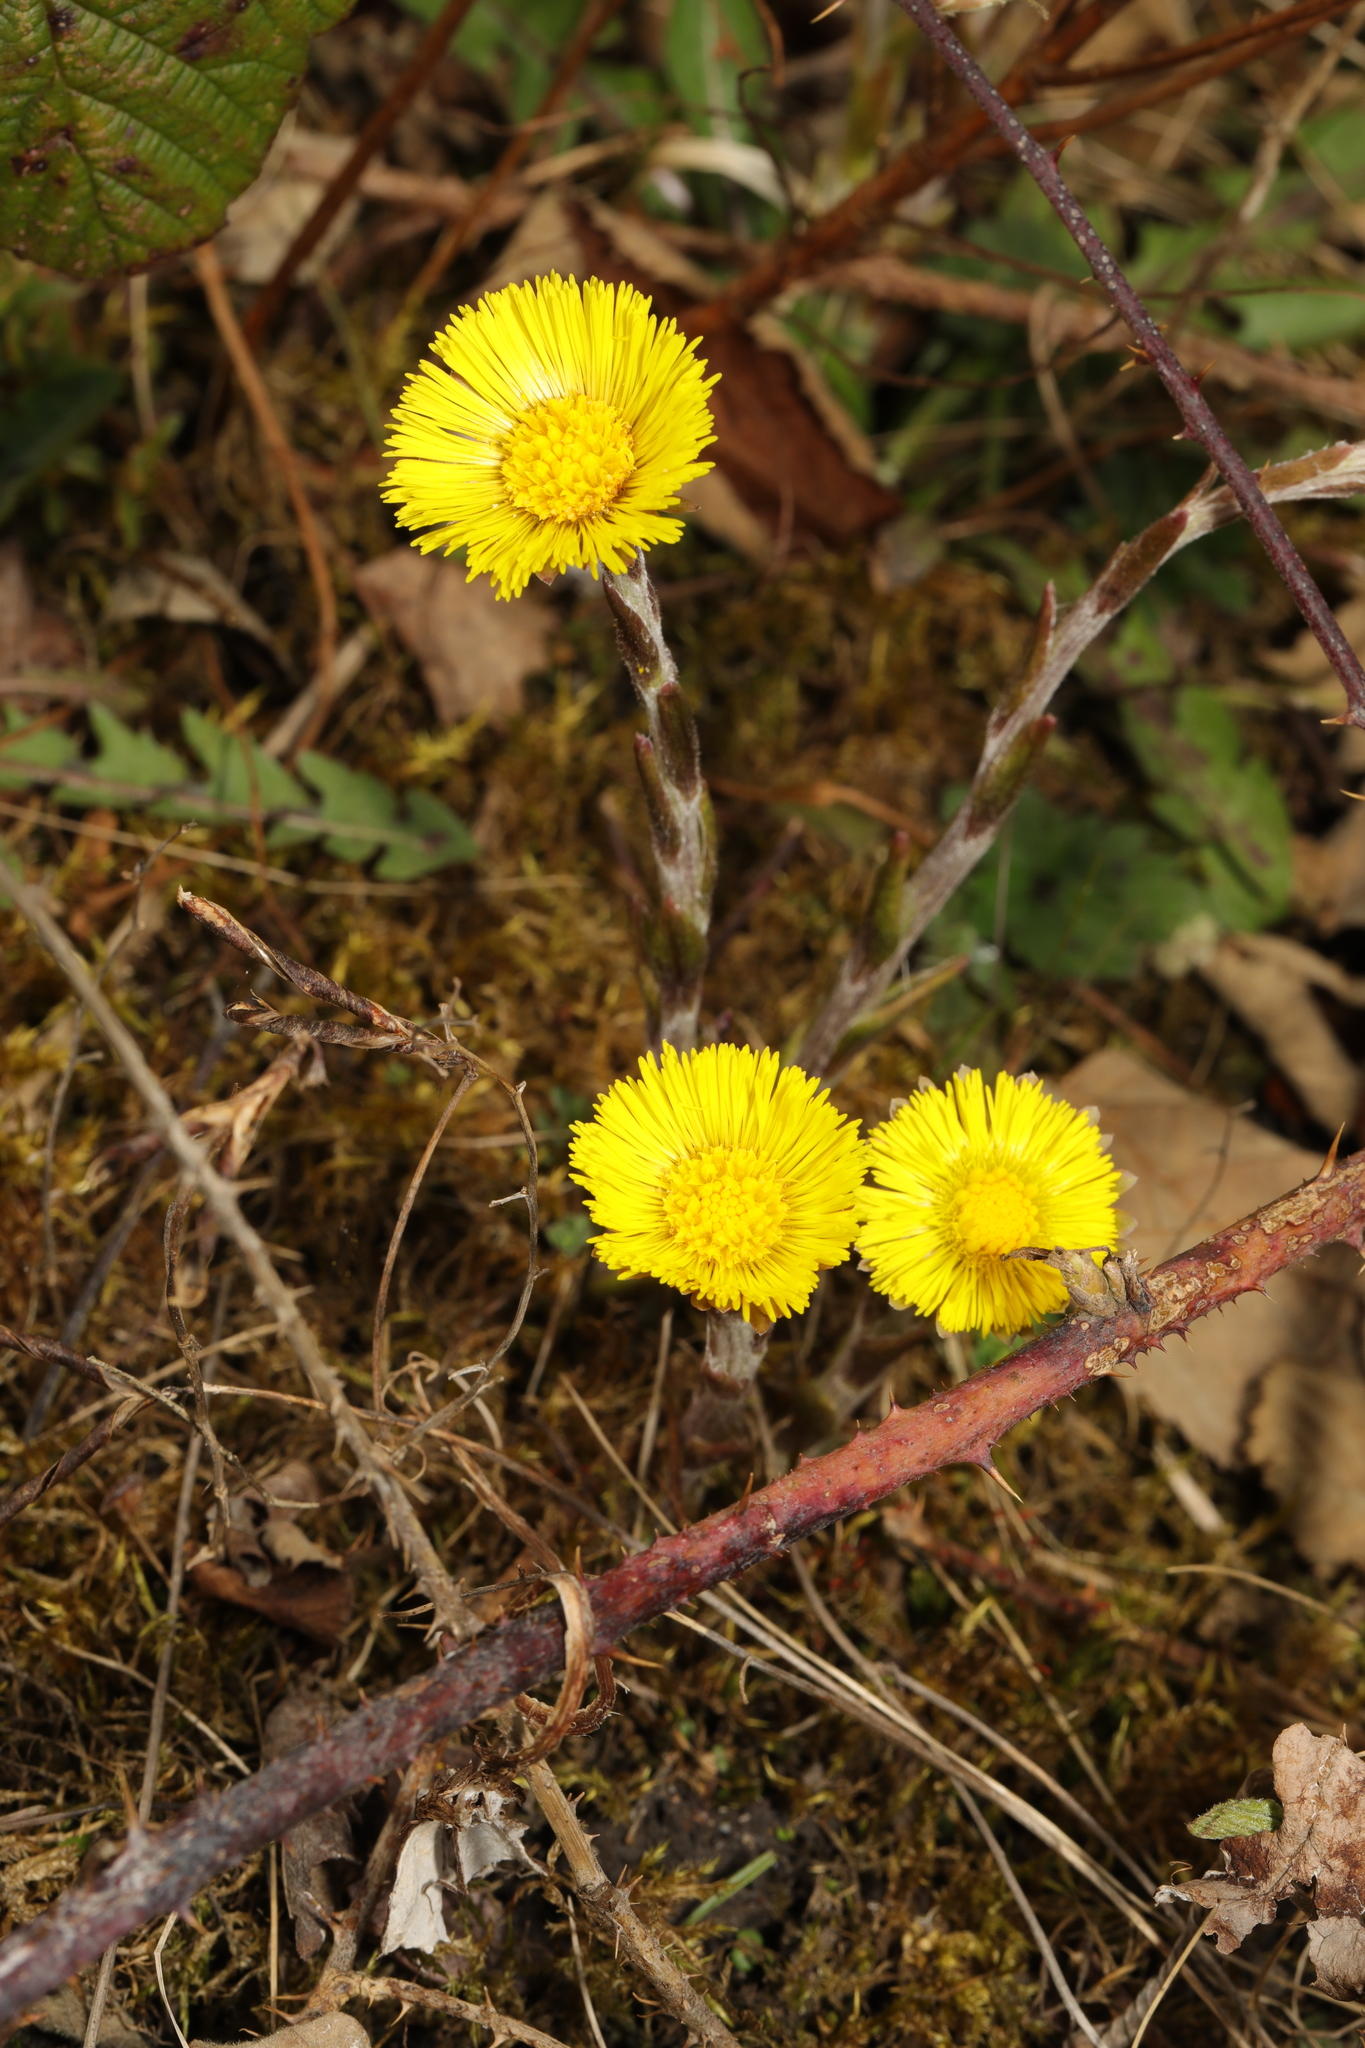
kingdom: Plantae
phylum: Tracheophyta
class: Magnoliopsida
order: Asterales
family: Asteraceae
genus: Tussilago
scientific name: Tussilago farfara
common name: Coltsfoot
